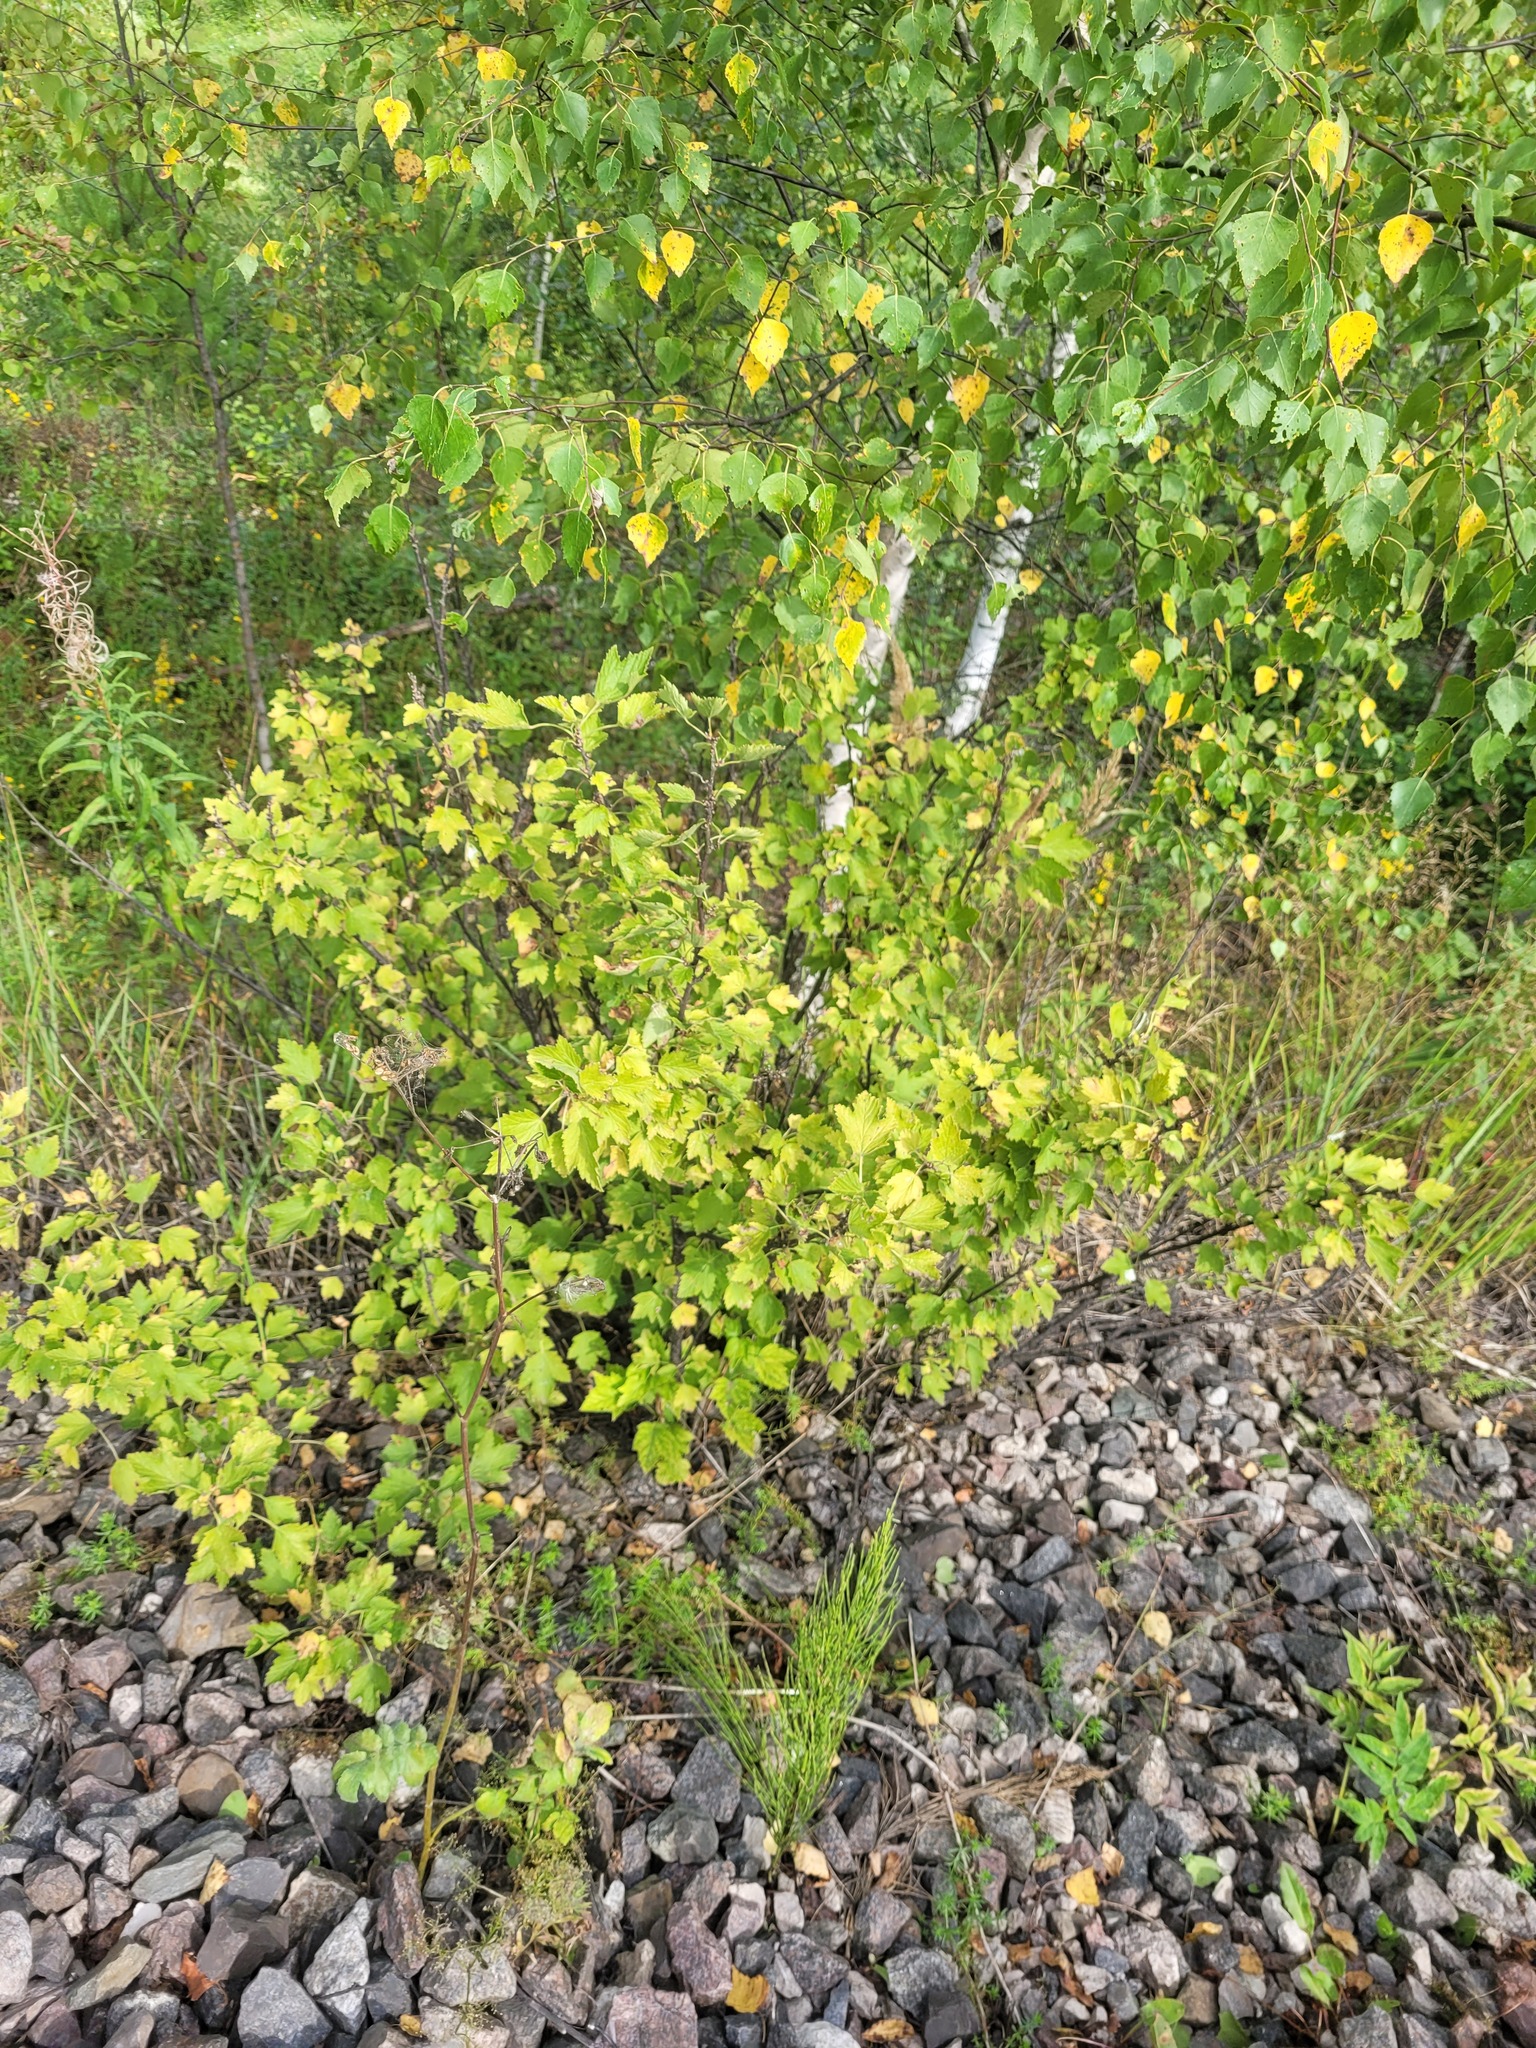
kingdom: Plantae
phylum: Tracheophyta
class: Magnoliopsida
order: Saxifragales
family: Grossulariaceae
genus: Ribes
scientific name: Ribes spicatum
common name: Downy currant
